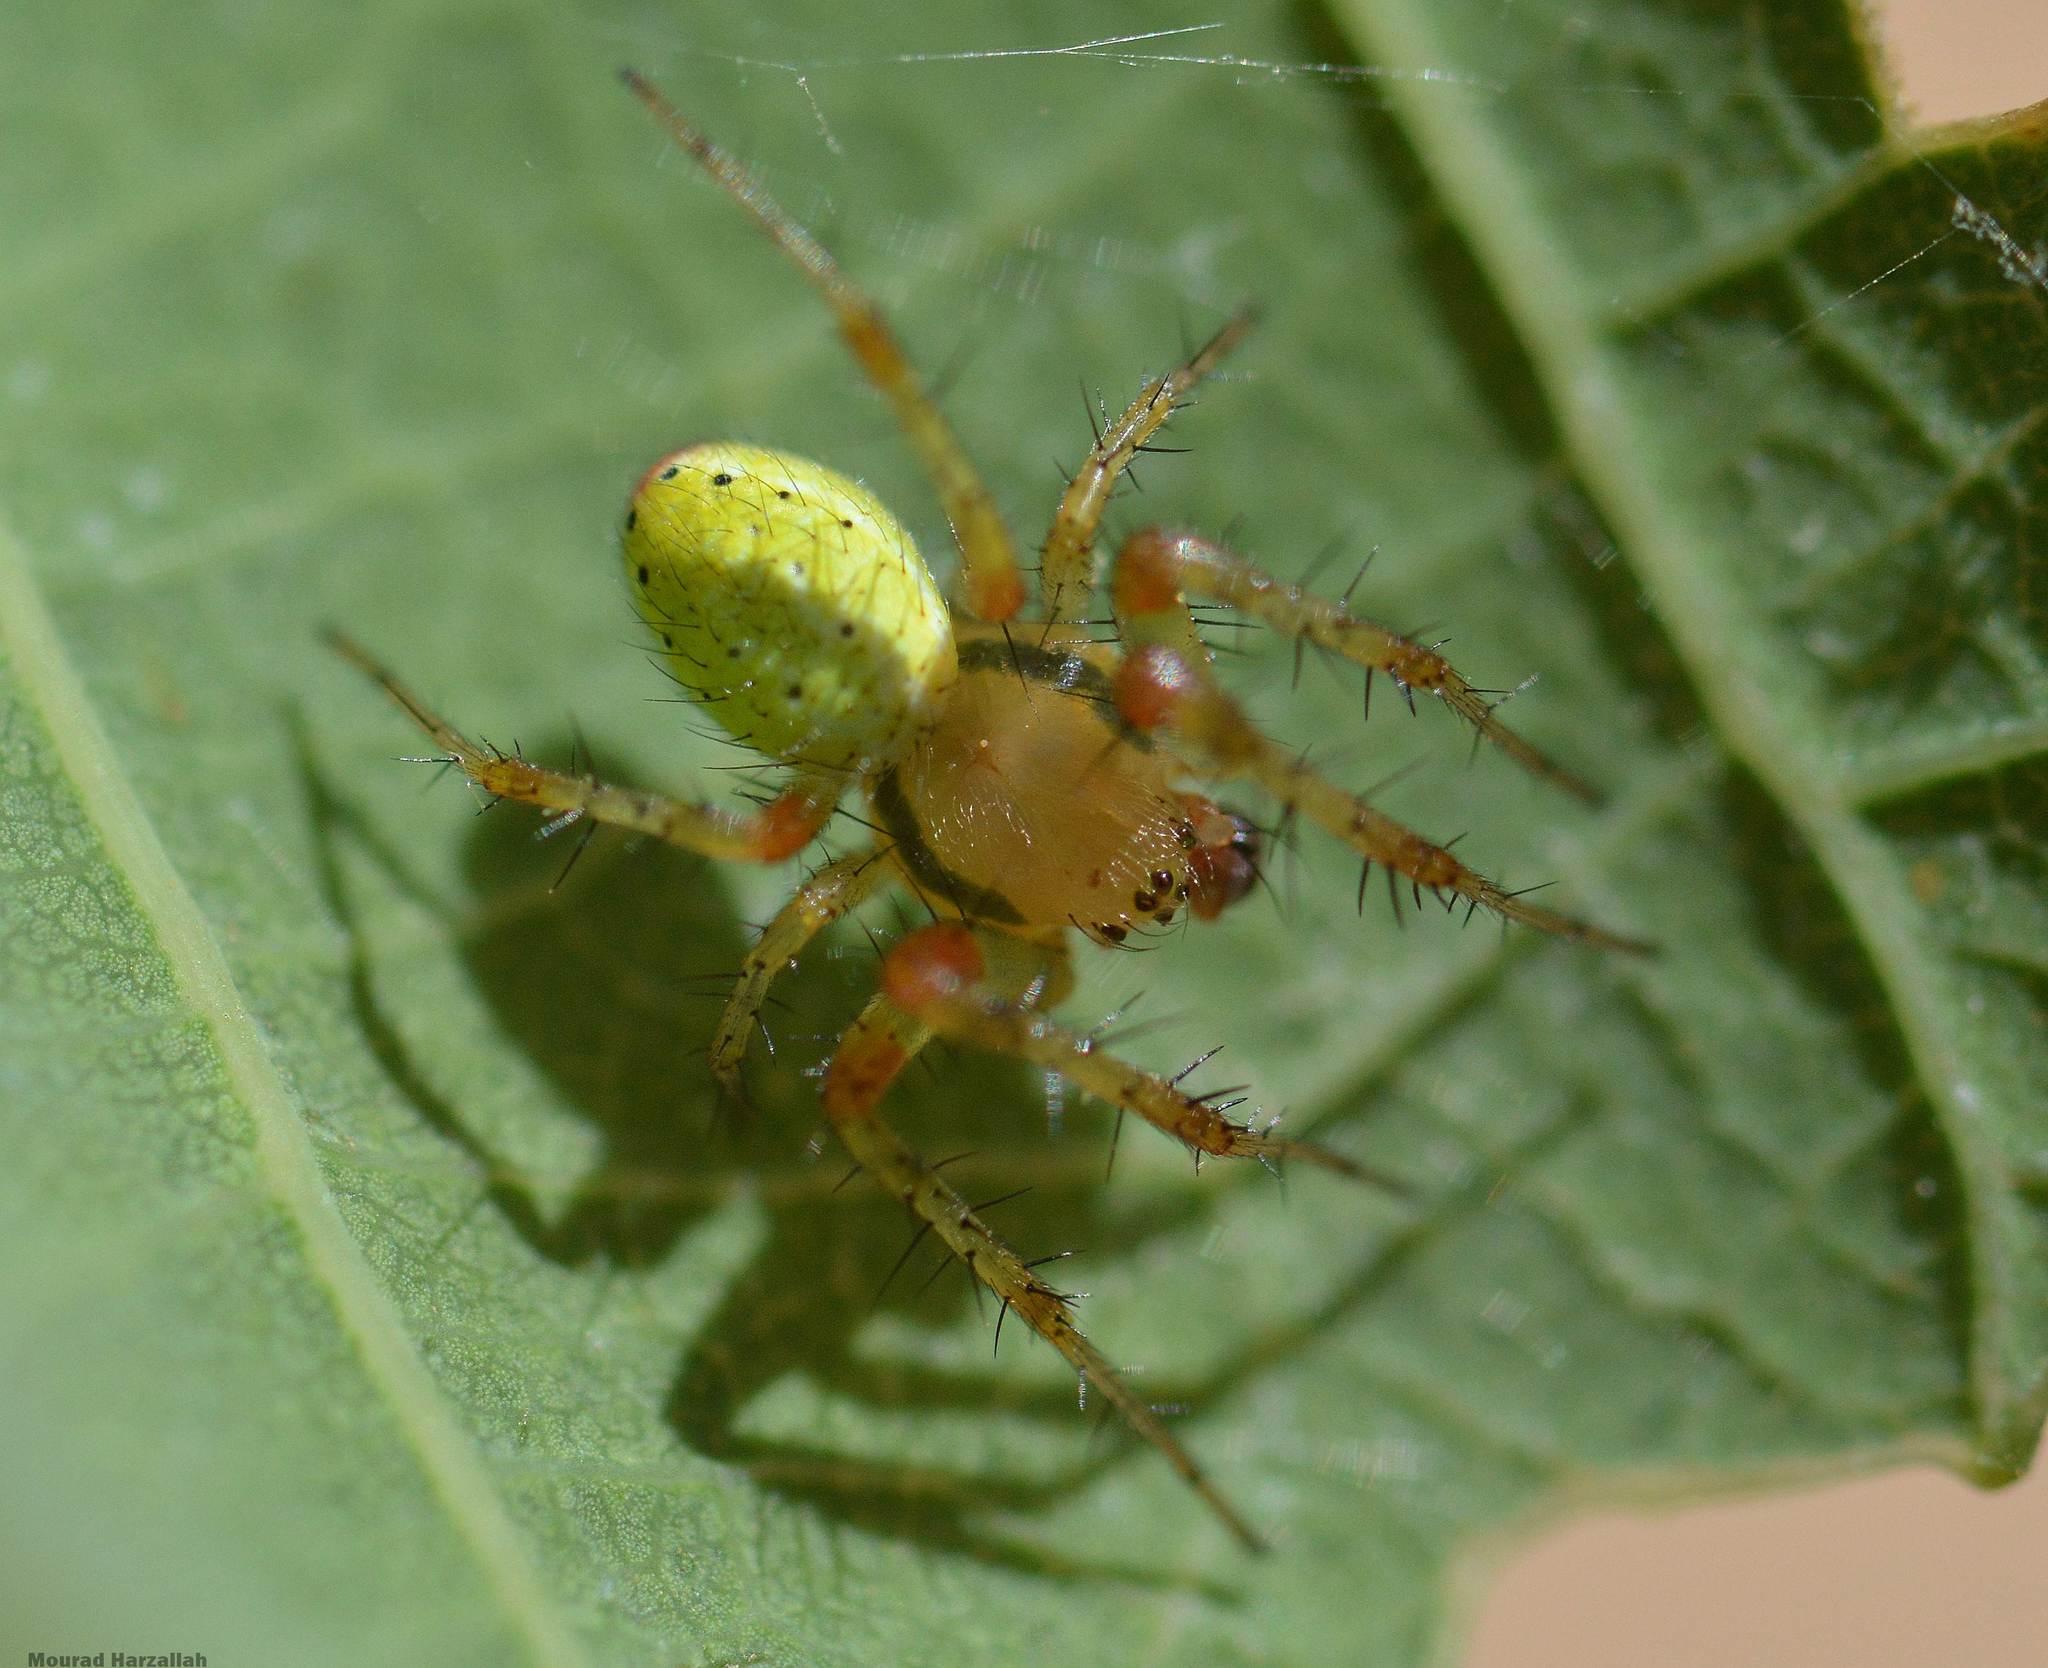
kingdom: Animalia
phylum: Arthropoda
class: Arachnida
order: Araneae
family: Araneidae
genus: Araniella
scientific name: Araniella cucurbitina
